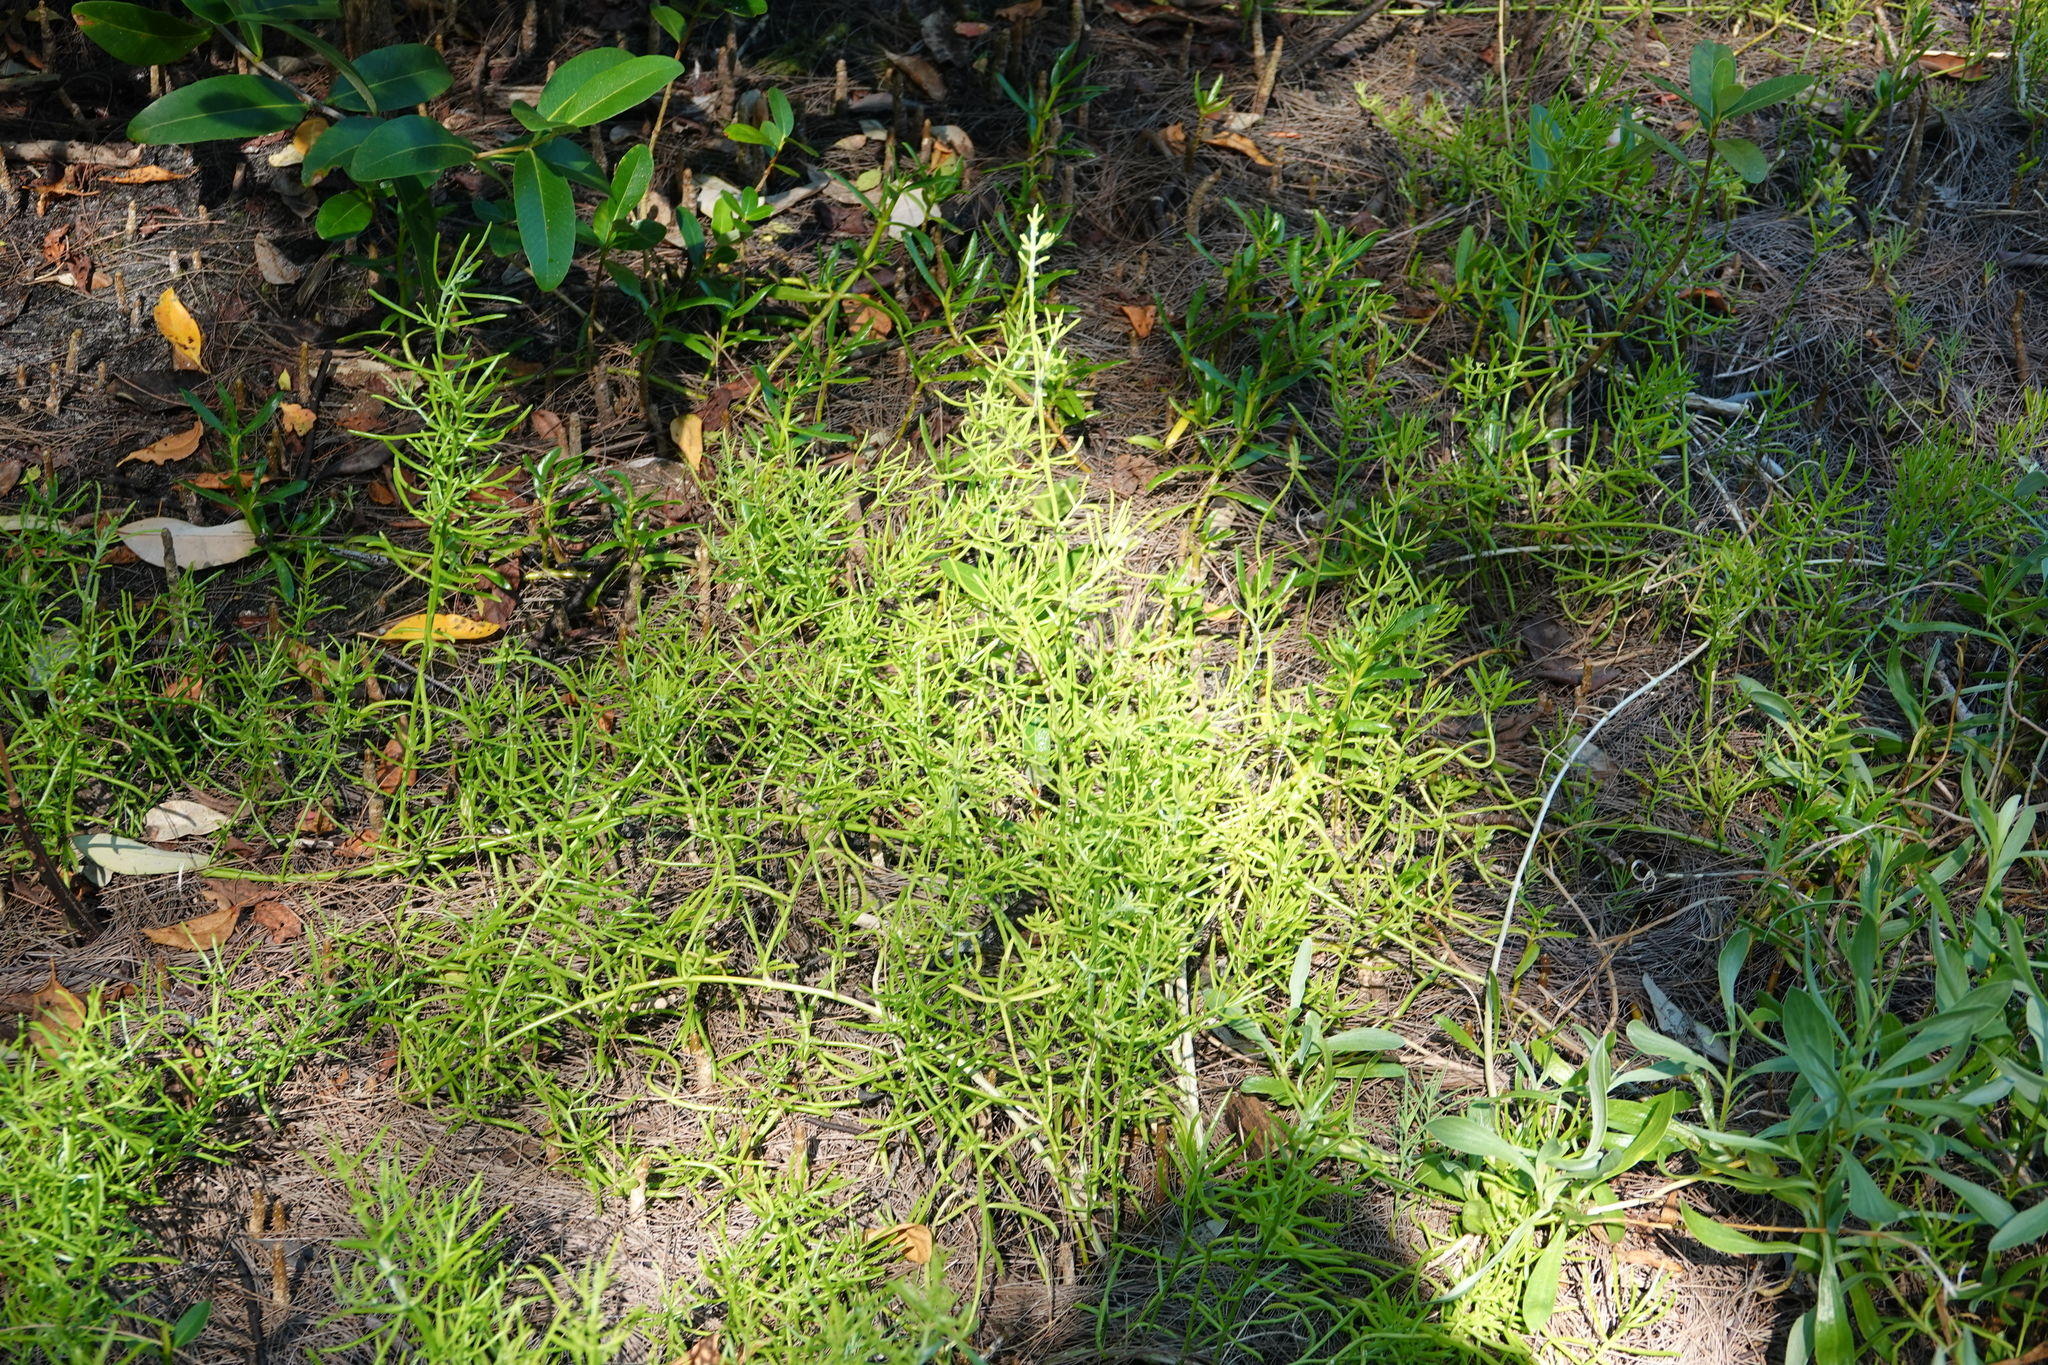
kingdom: Plantae
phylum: Tracheophyta
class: Magnoliopsida
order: Brassicales
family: Bataceae
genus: Batis
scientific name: Batis maritima
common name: Turtleweed
